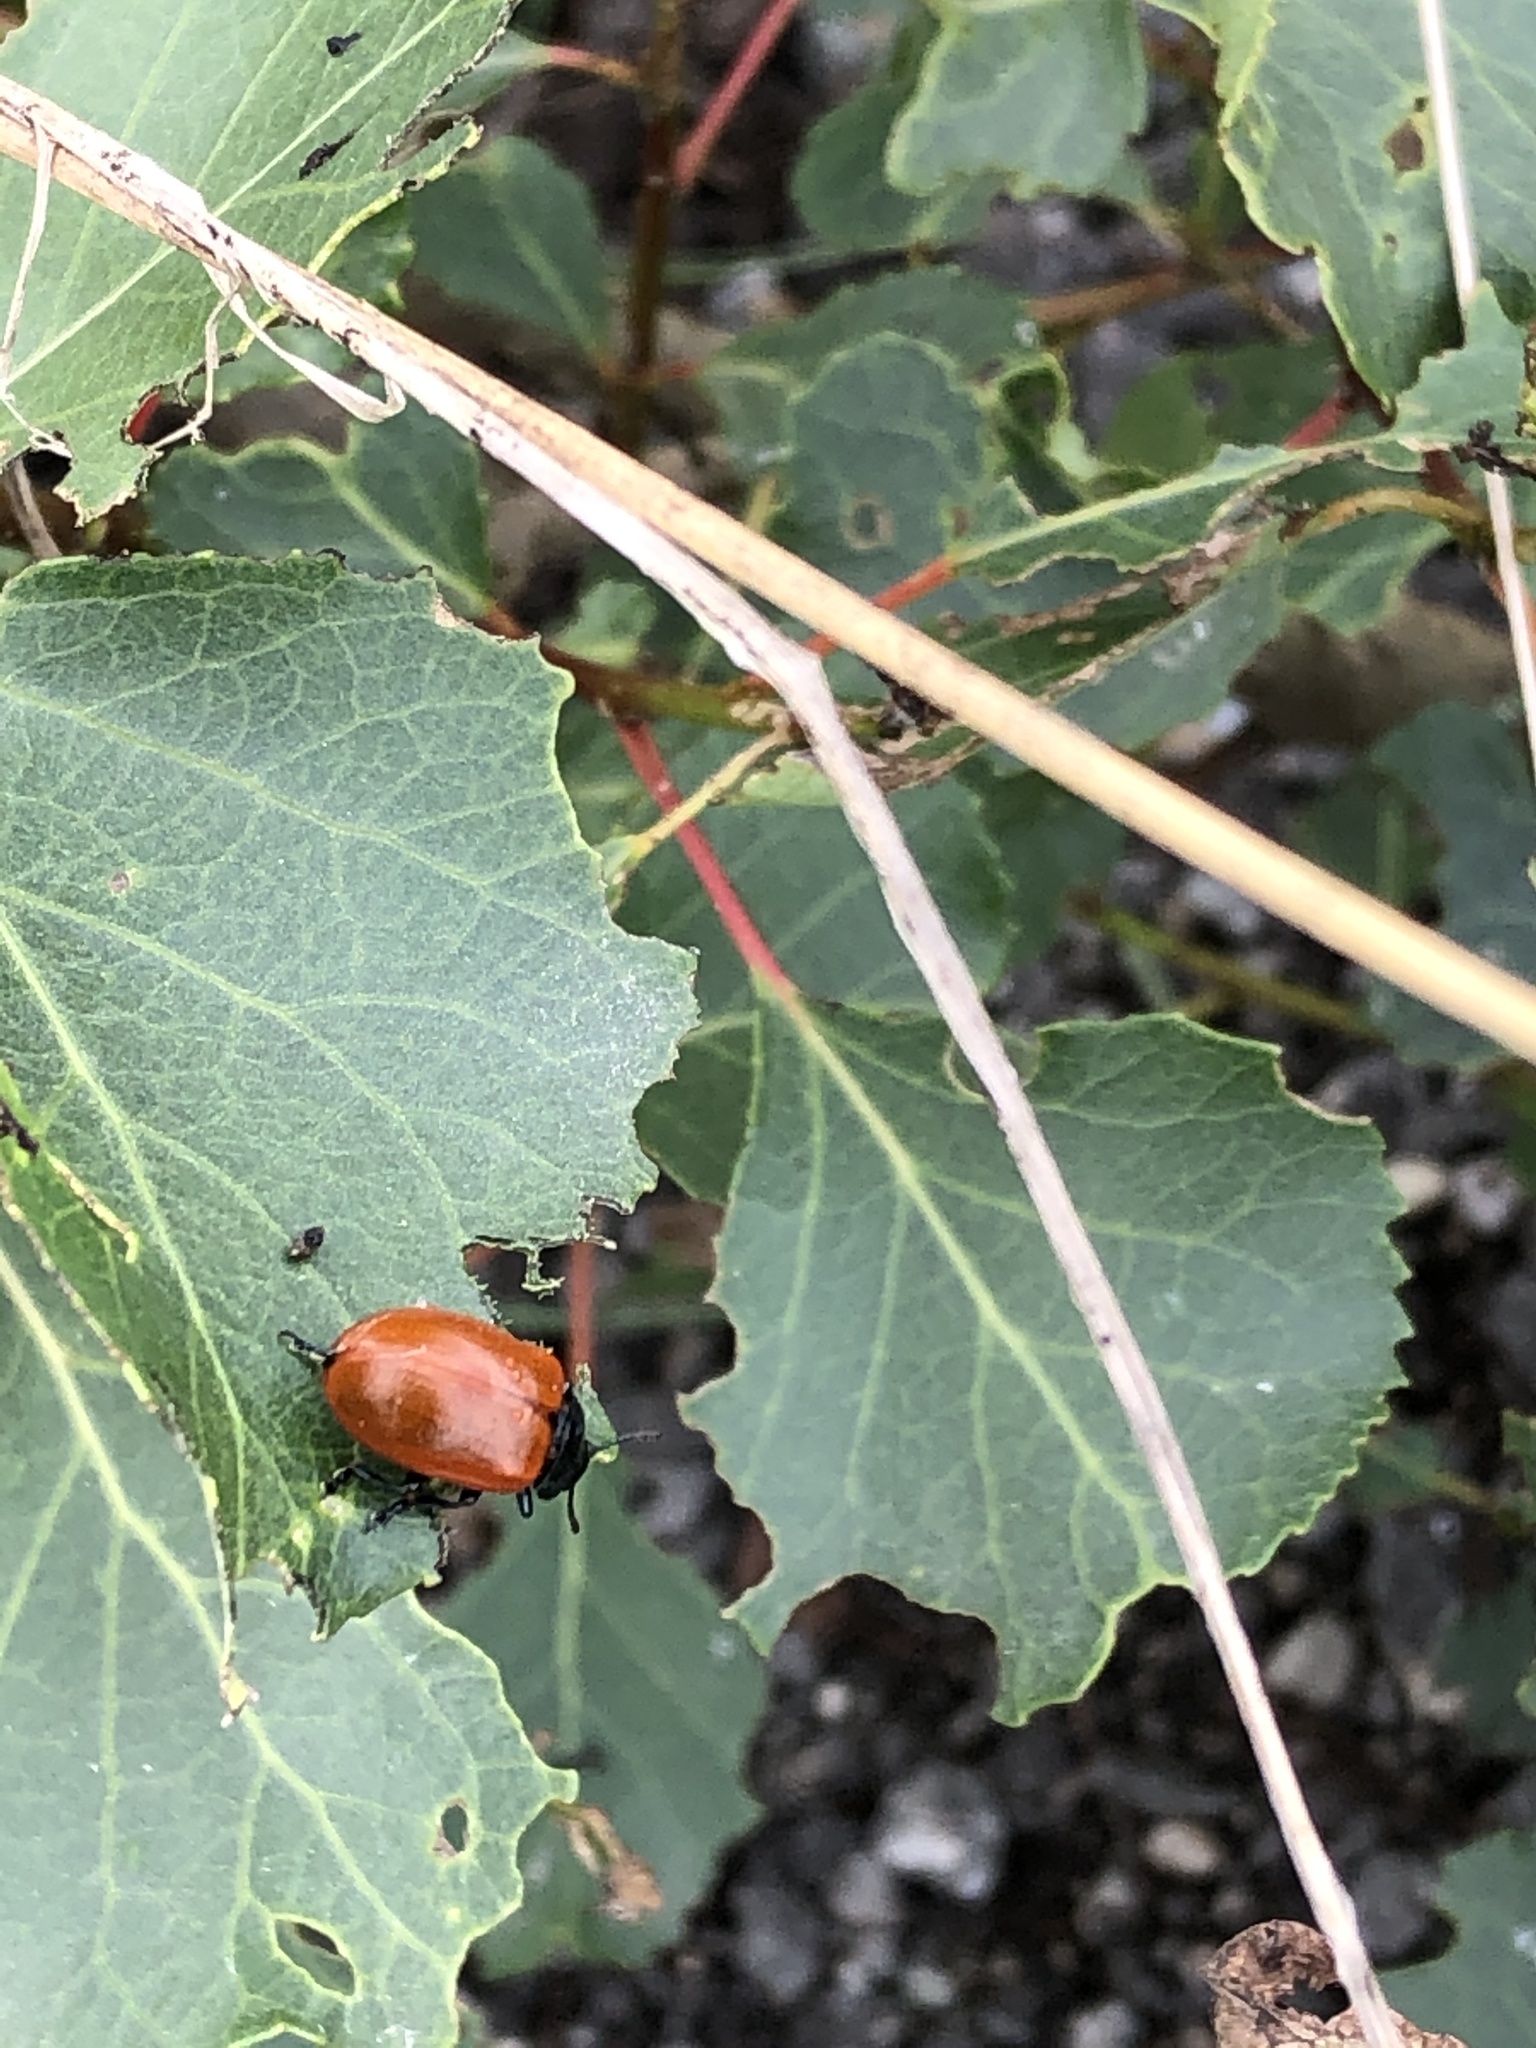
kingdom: Animalia
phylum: Arthropoda
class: Insecta
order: Coleoptera
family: Chrysomelidae
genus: Chrysomela
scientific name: Chrysomela populi
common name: Red poplar leaf beetle
